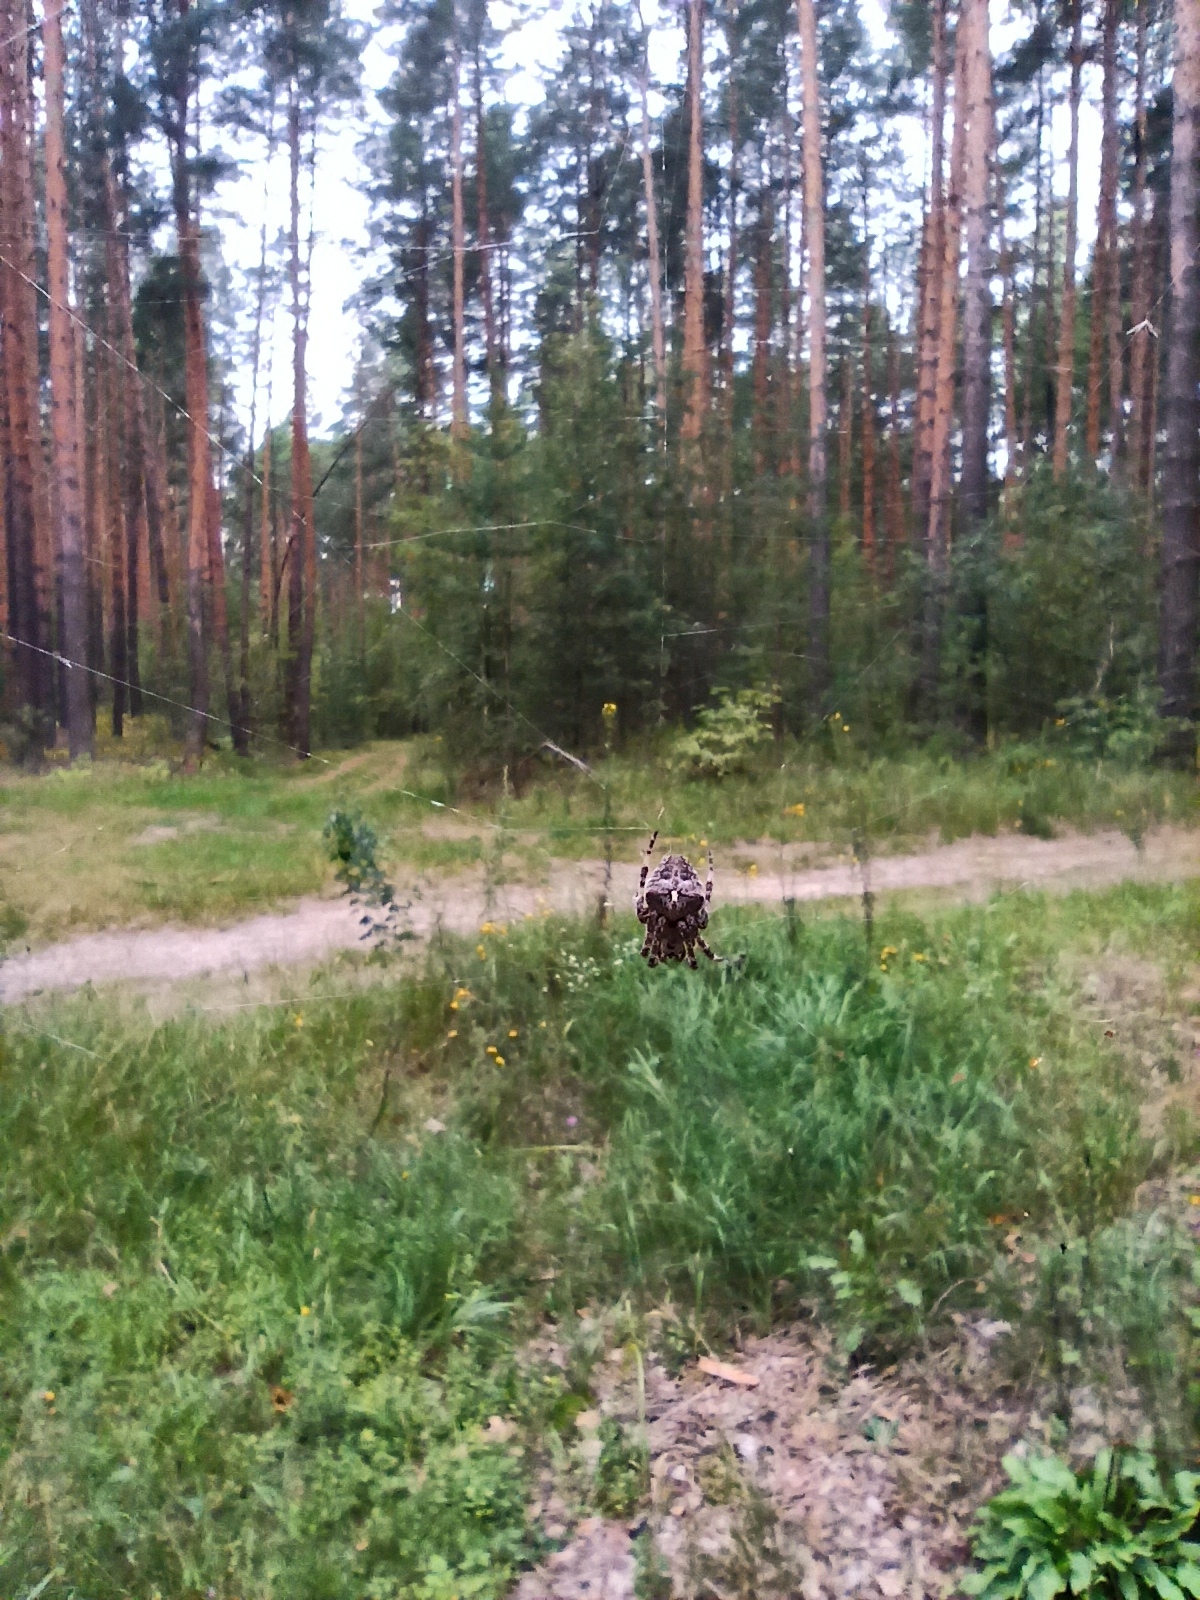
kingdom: Animalia
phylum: Arthropoda
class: Arachnida
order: Araneae
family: Araneidae
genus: Araneus
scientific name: Araneus angulatus
